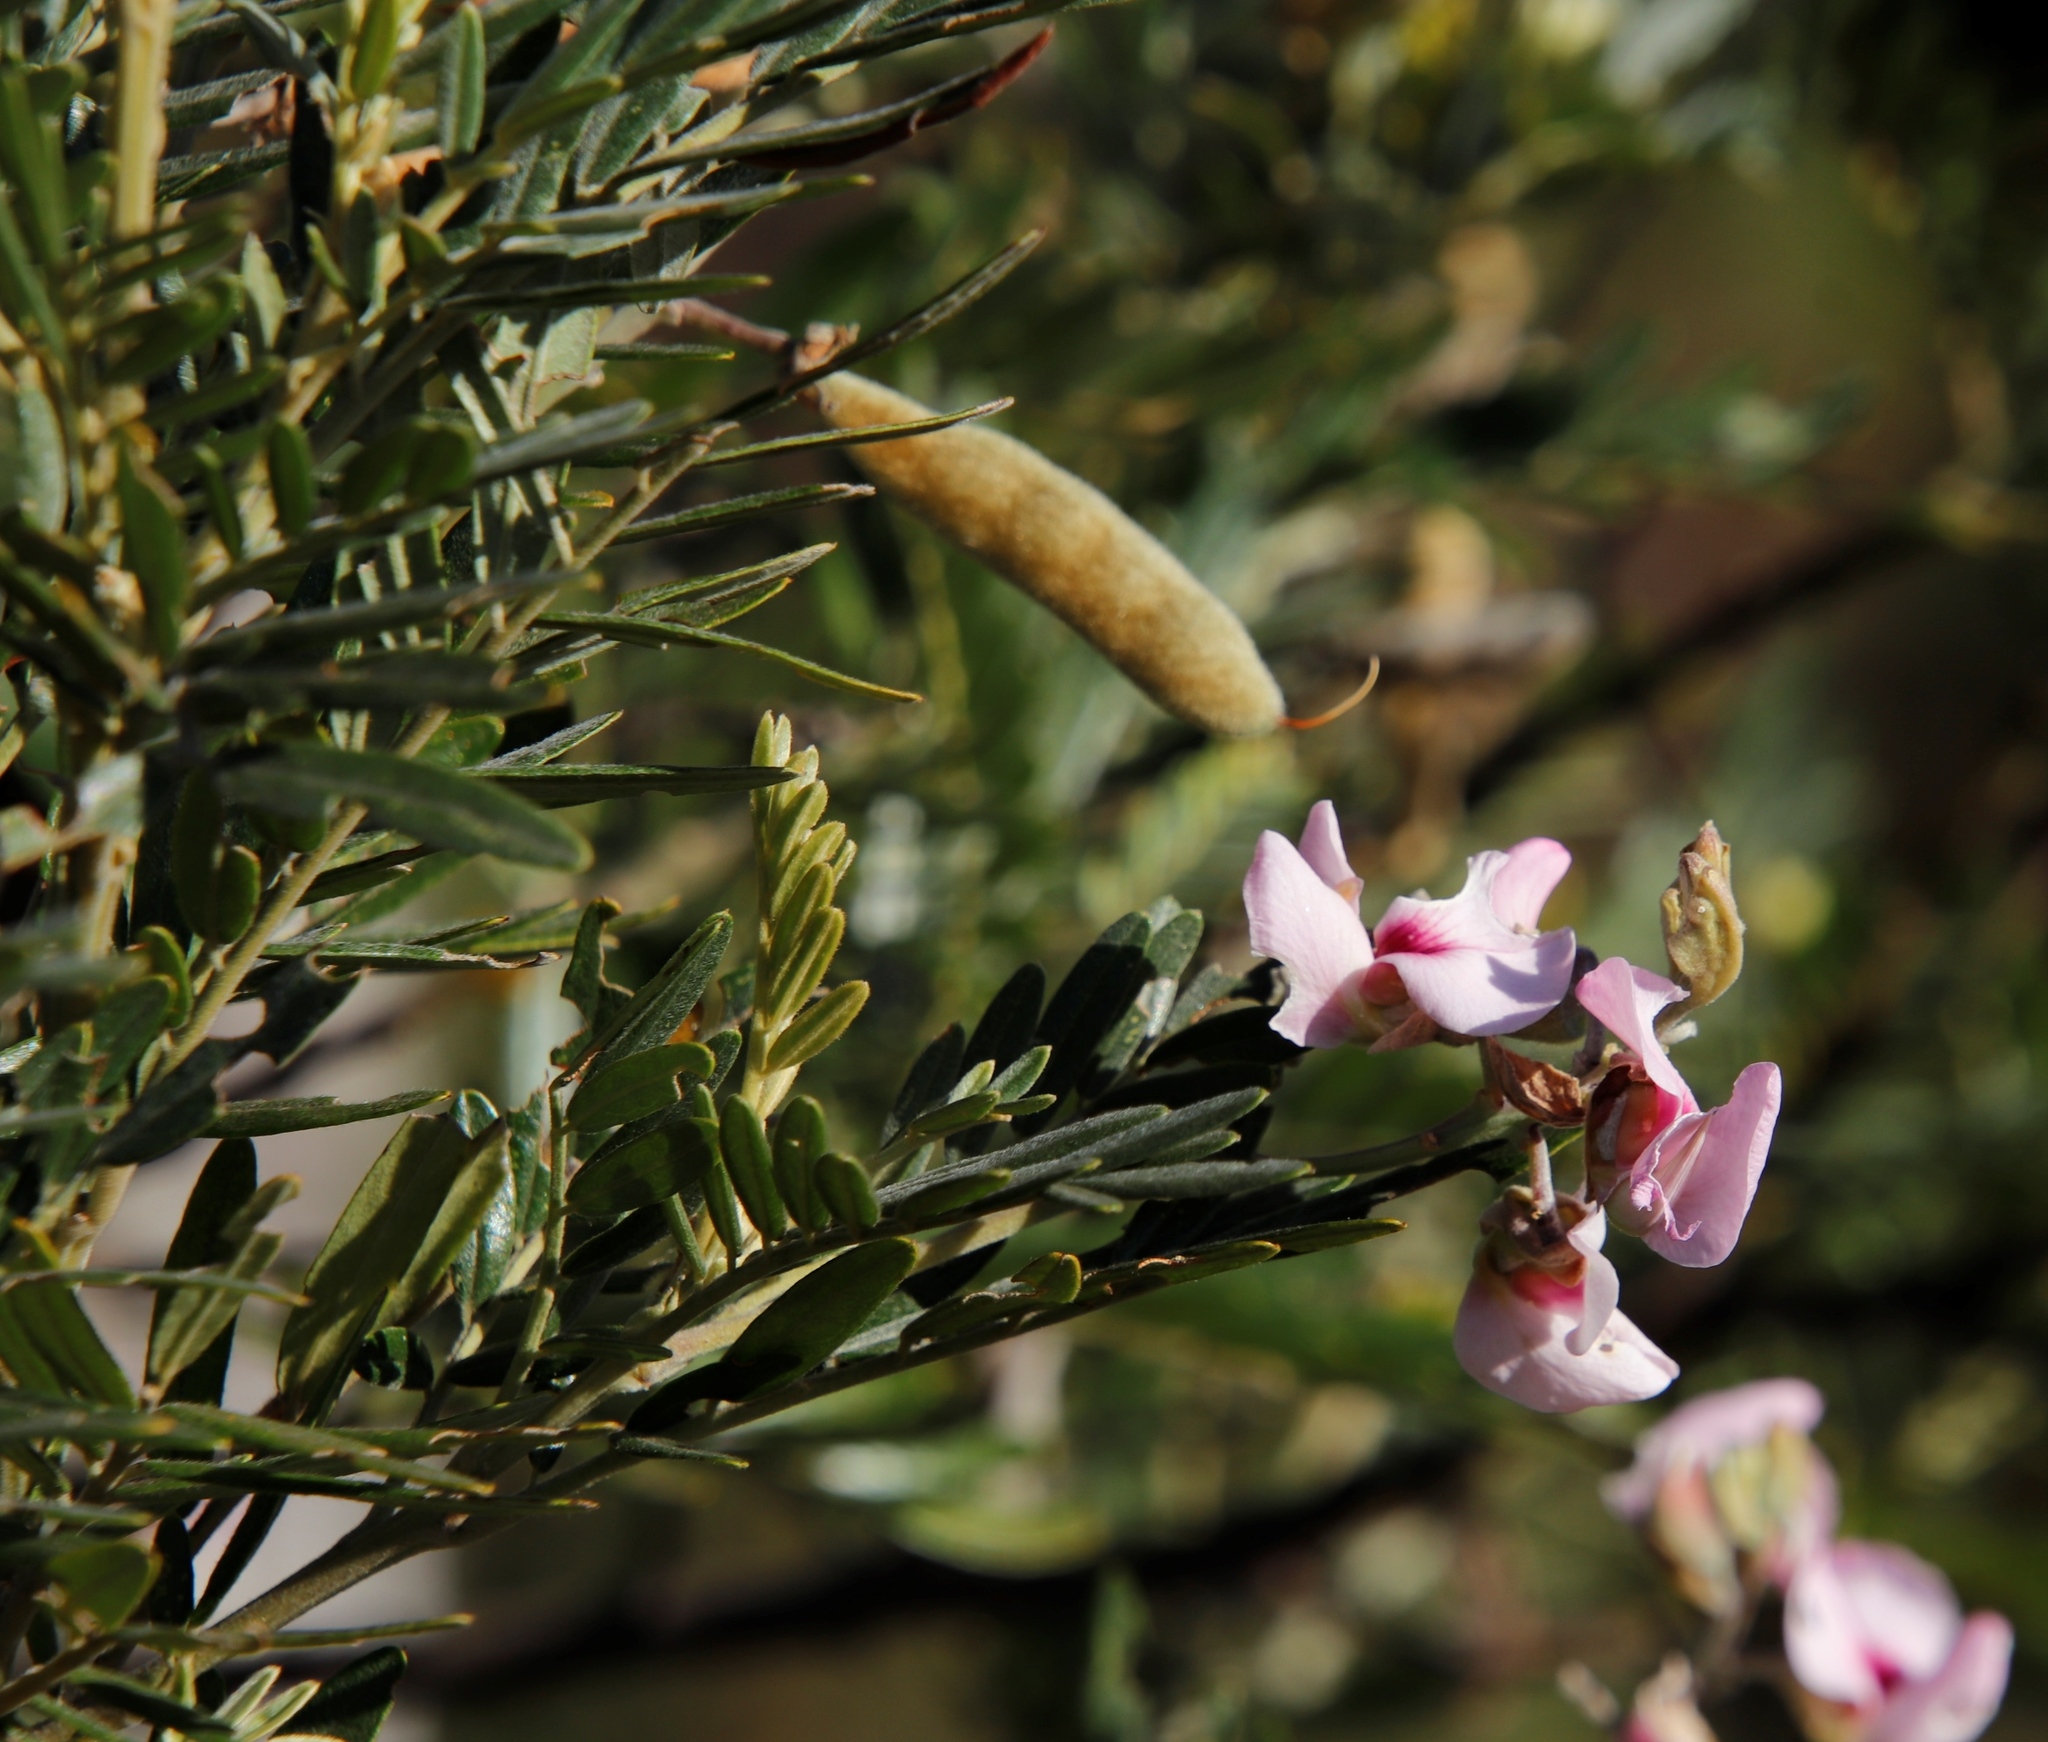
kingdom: Plantae
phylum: Tracheophyta
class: Magnoliopsida
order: Fabales
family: Fabaceae
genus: Virgilia
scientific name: Virgilia oroboides
